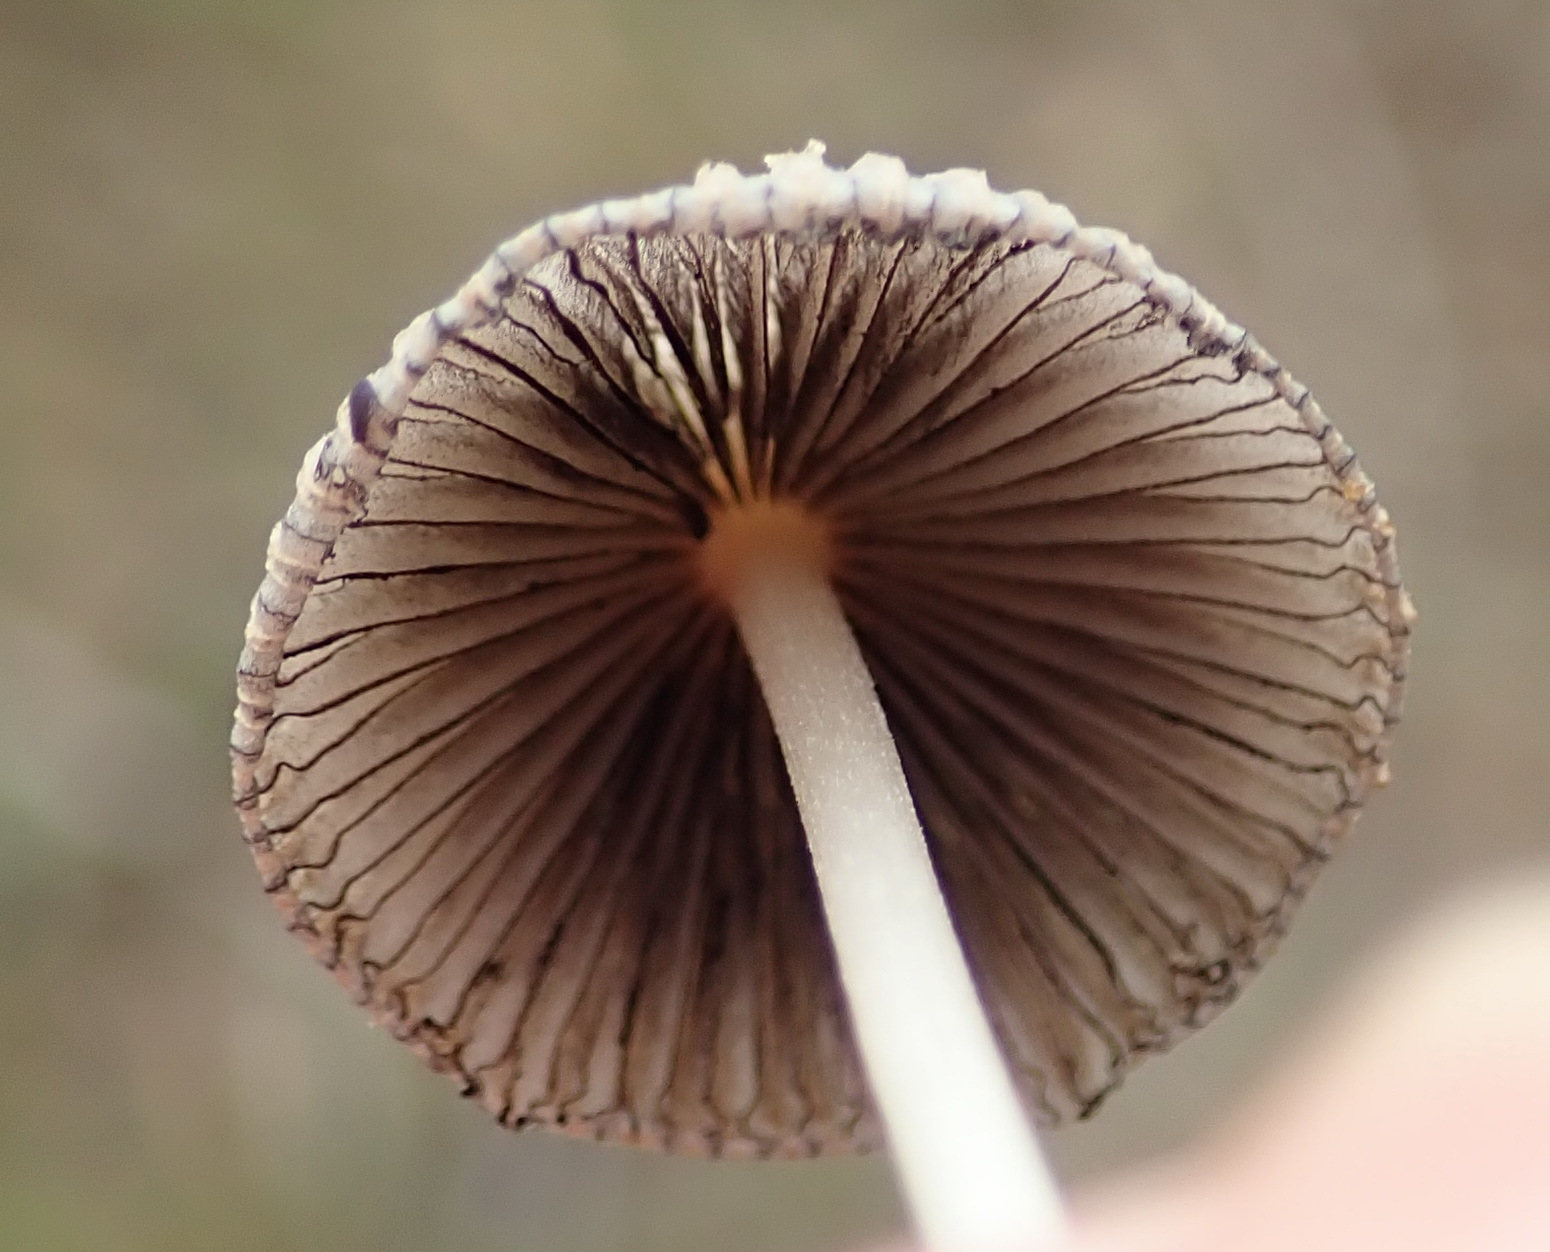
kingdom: Fungi
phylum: Basidiomycota
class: Agaricomycetes
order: Agaricales
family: Psathyrellaceae
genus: Parasola
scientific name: Parasola plicatilis
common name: Pleated inkcap
